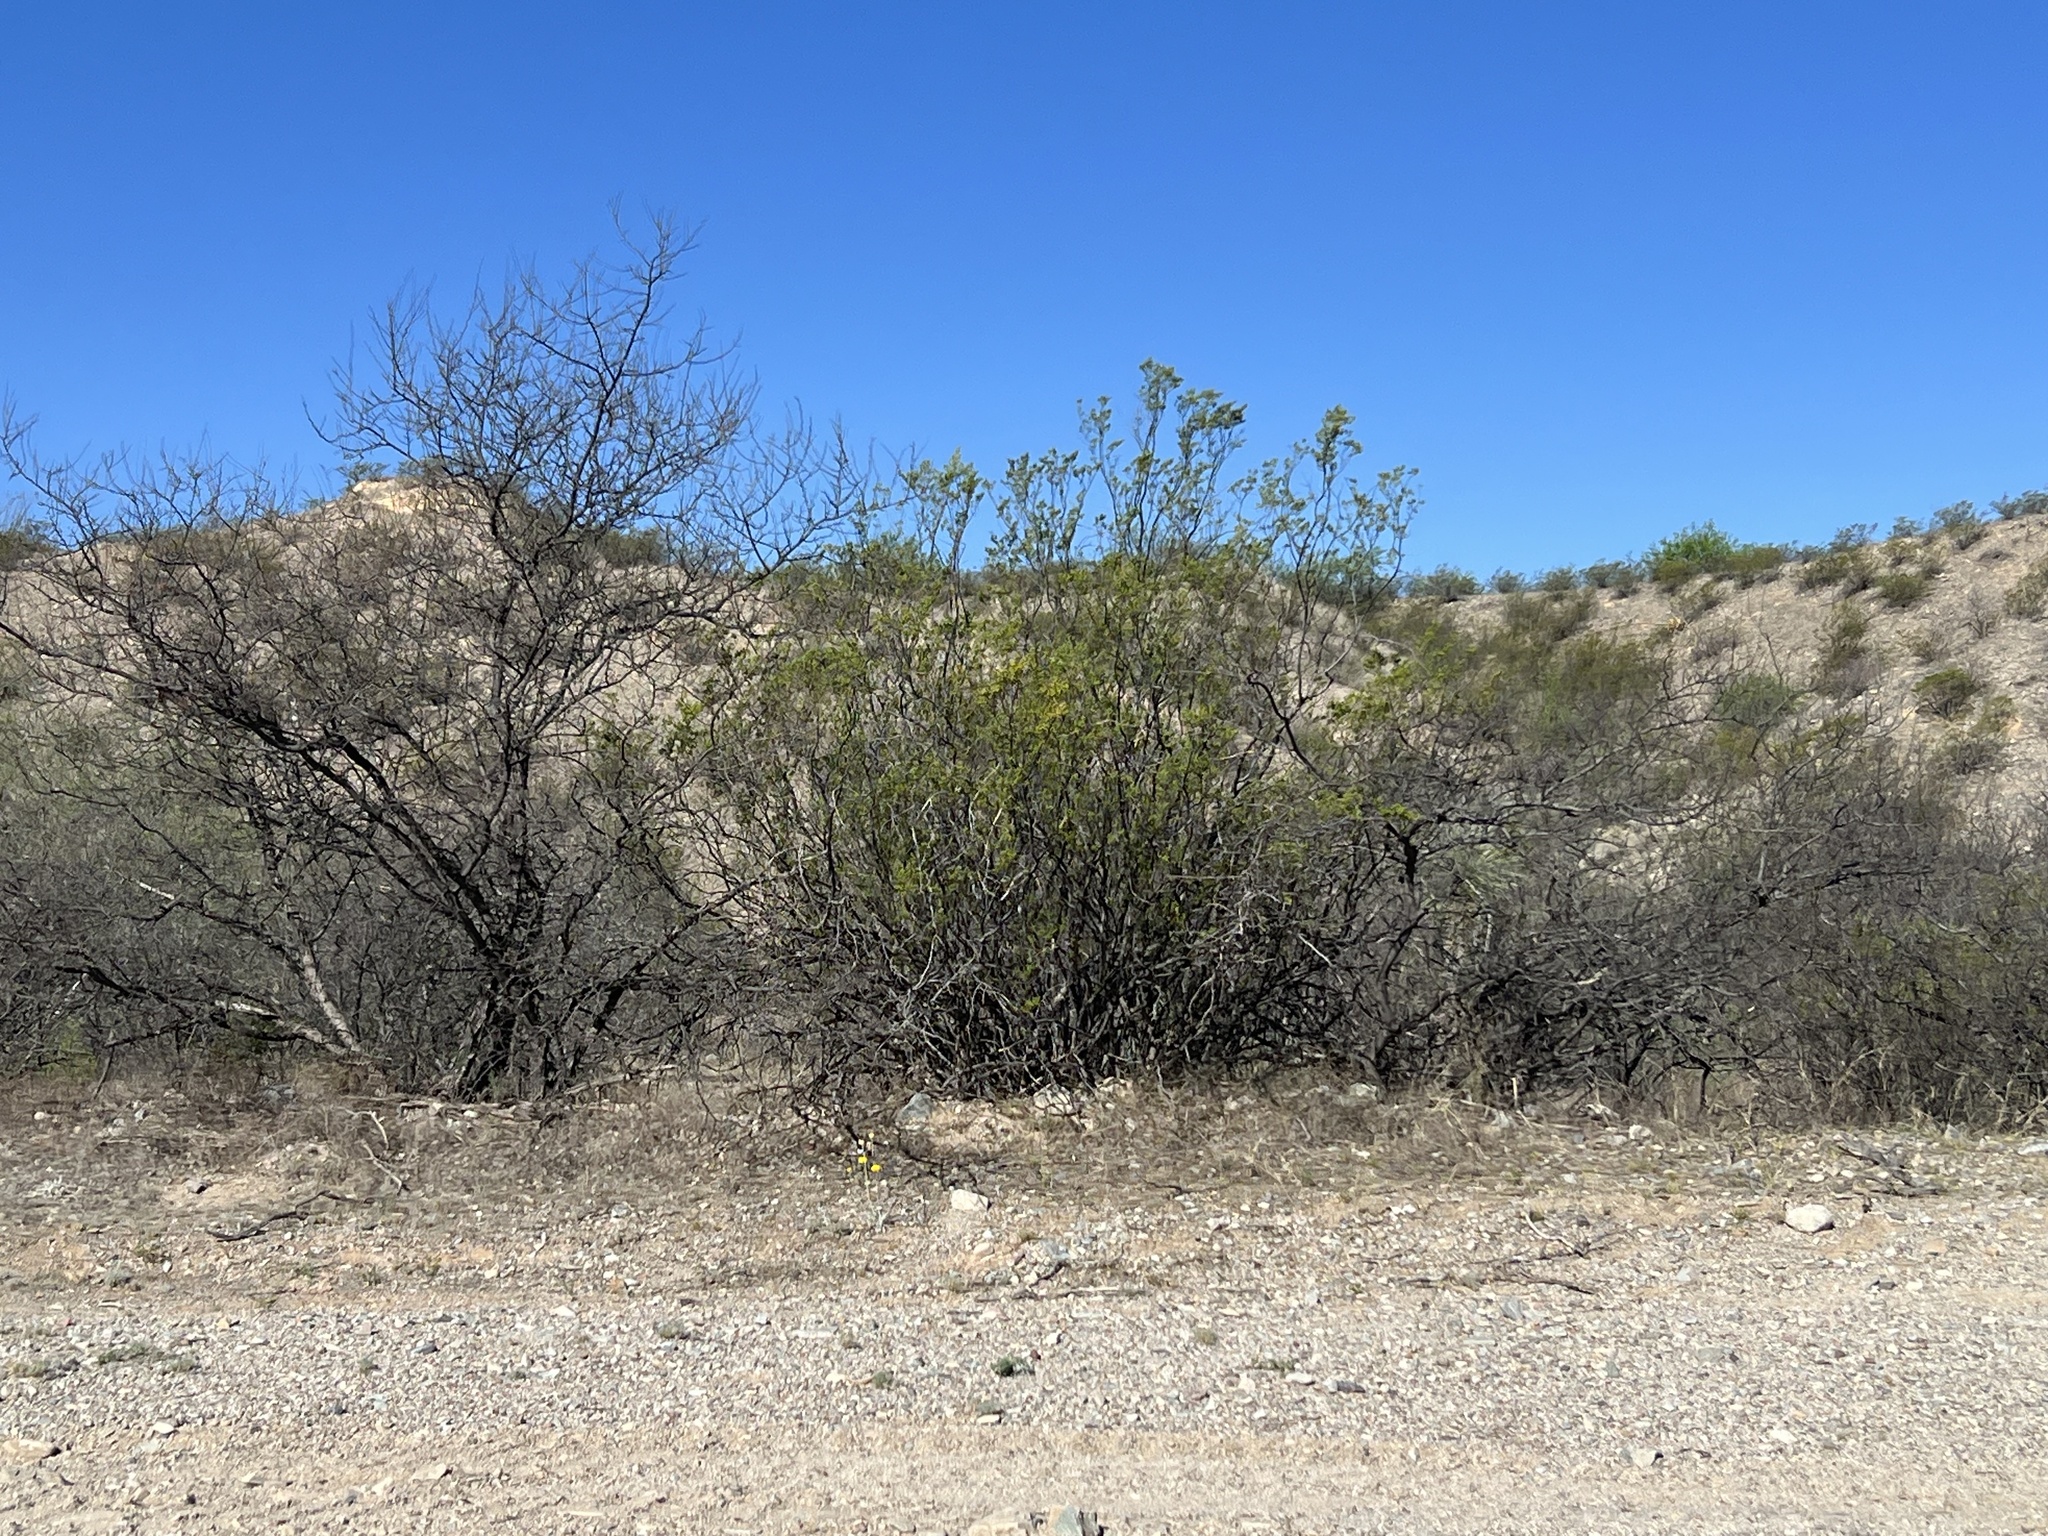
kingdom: Plantae
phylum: Tracheophyta
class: Magnoliopsida
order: Zygophyllales
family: Zygophyllaceae
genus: Larrea
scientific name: Larrea tridentata
